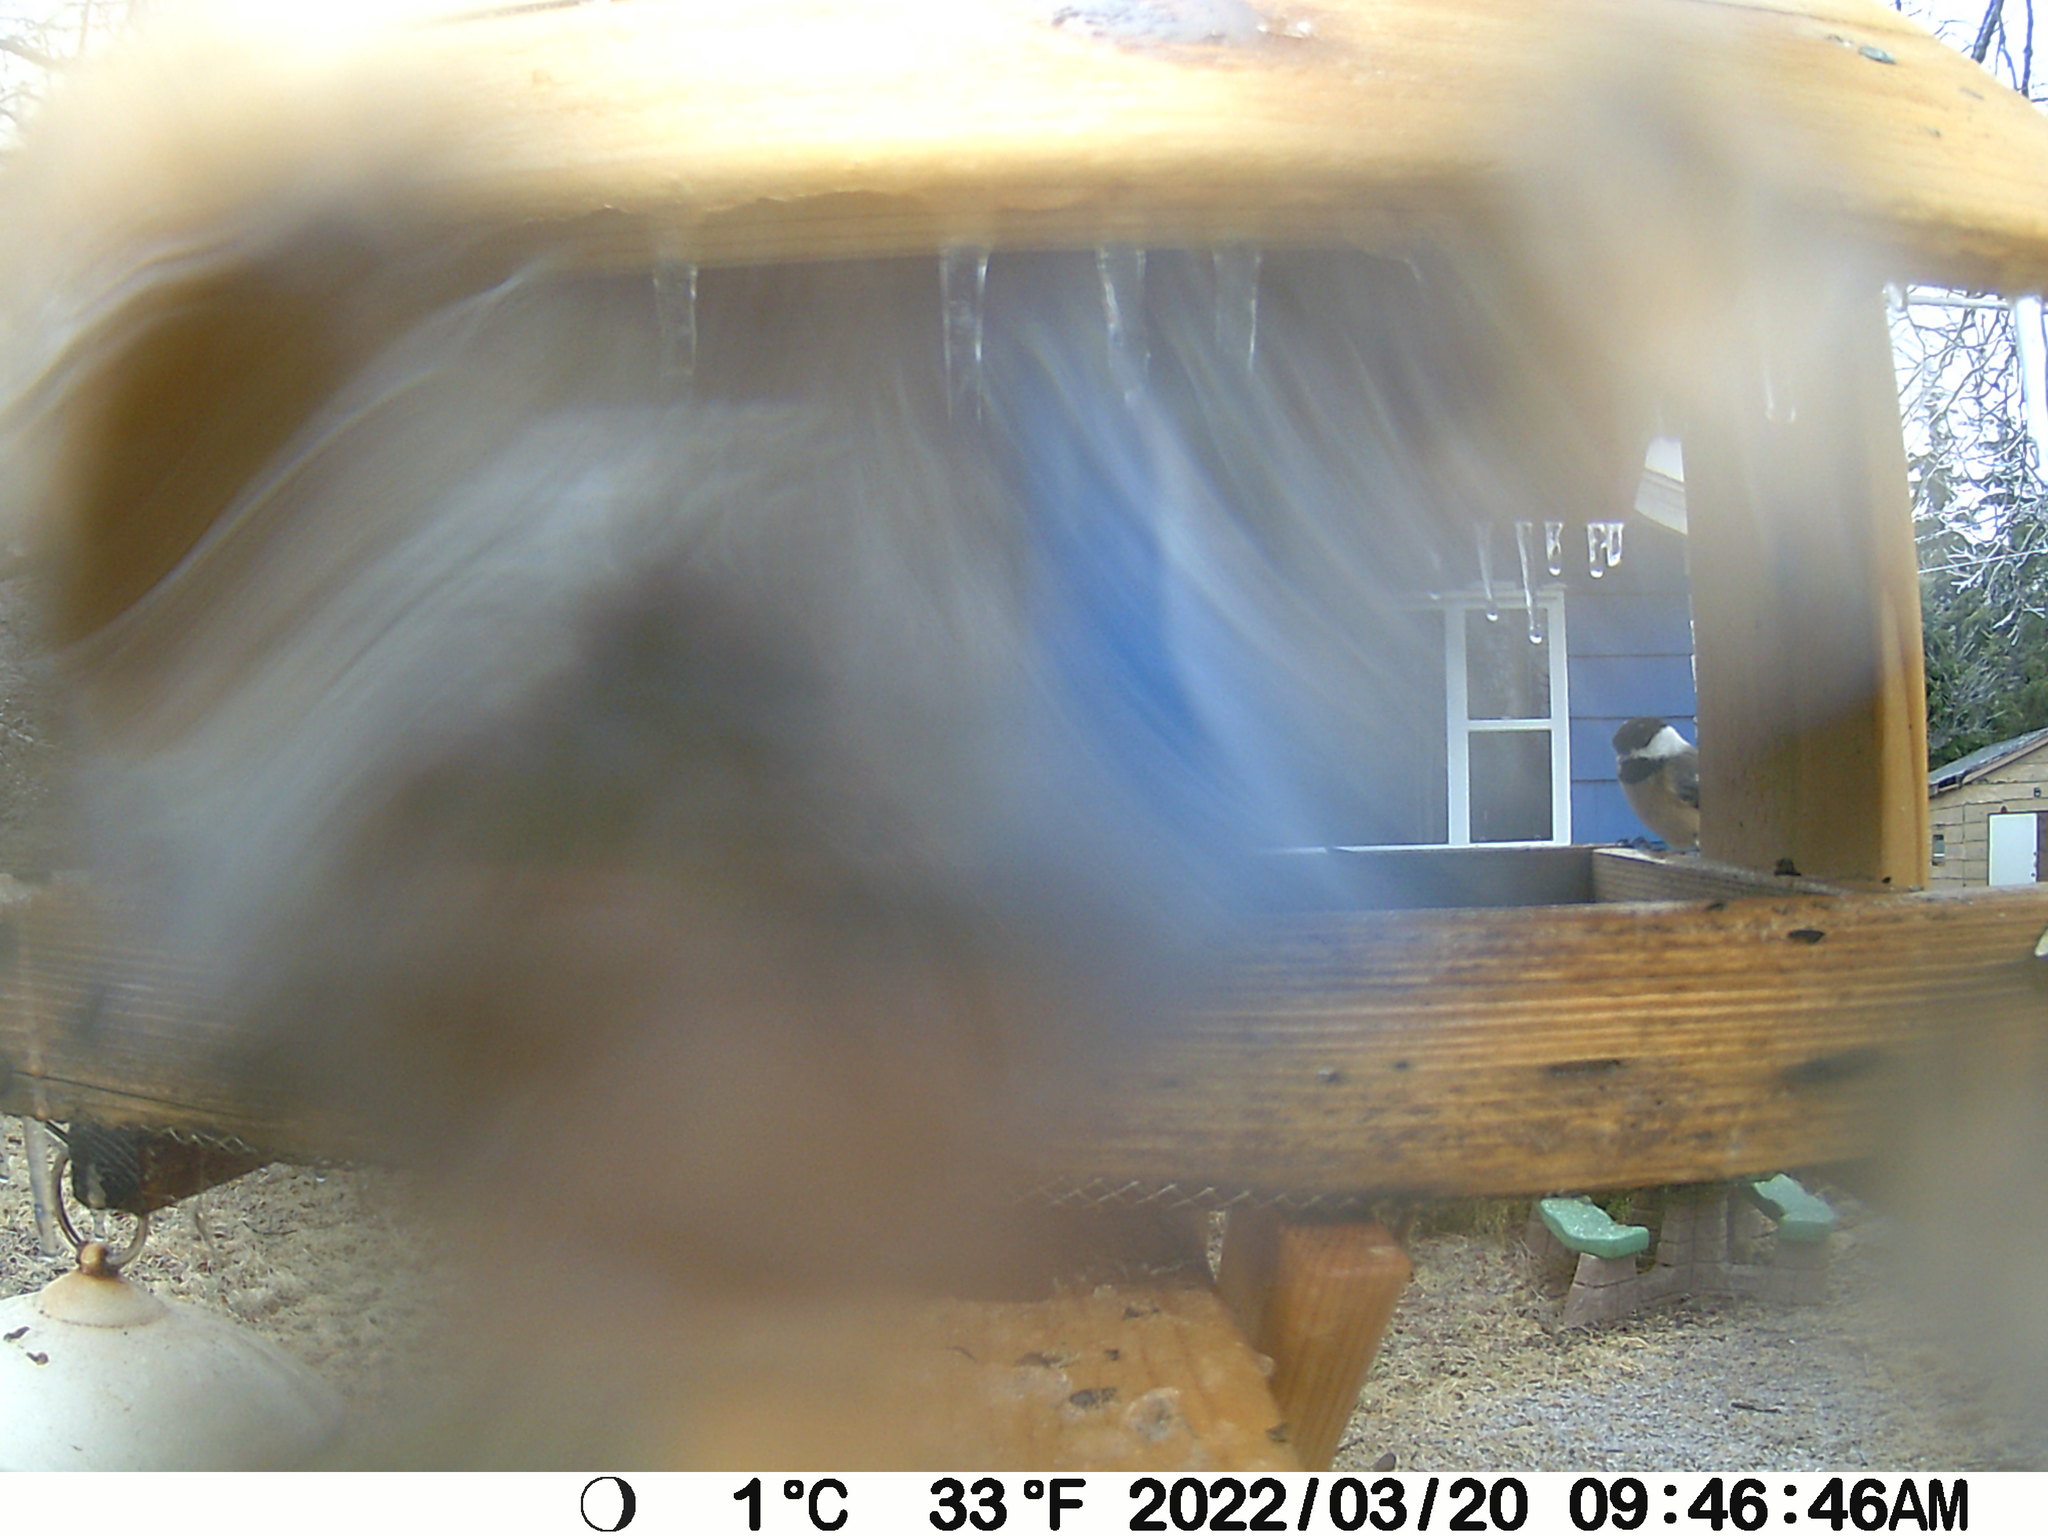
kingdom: Animalia
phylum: Chordata
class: Aves
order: Passeriformes
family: Paridae
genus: Poecile
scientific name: Poecile atricapillus
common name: Black-capped chickadee
